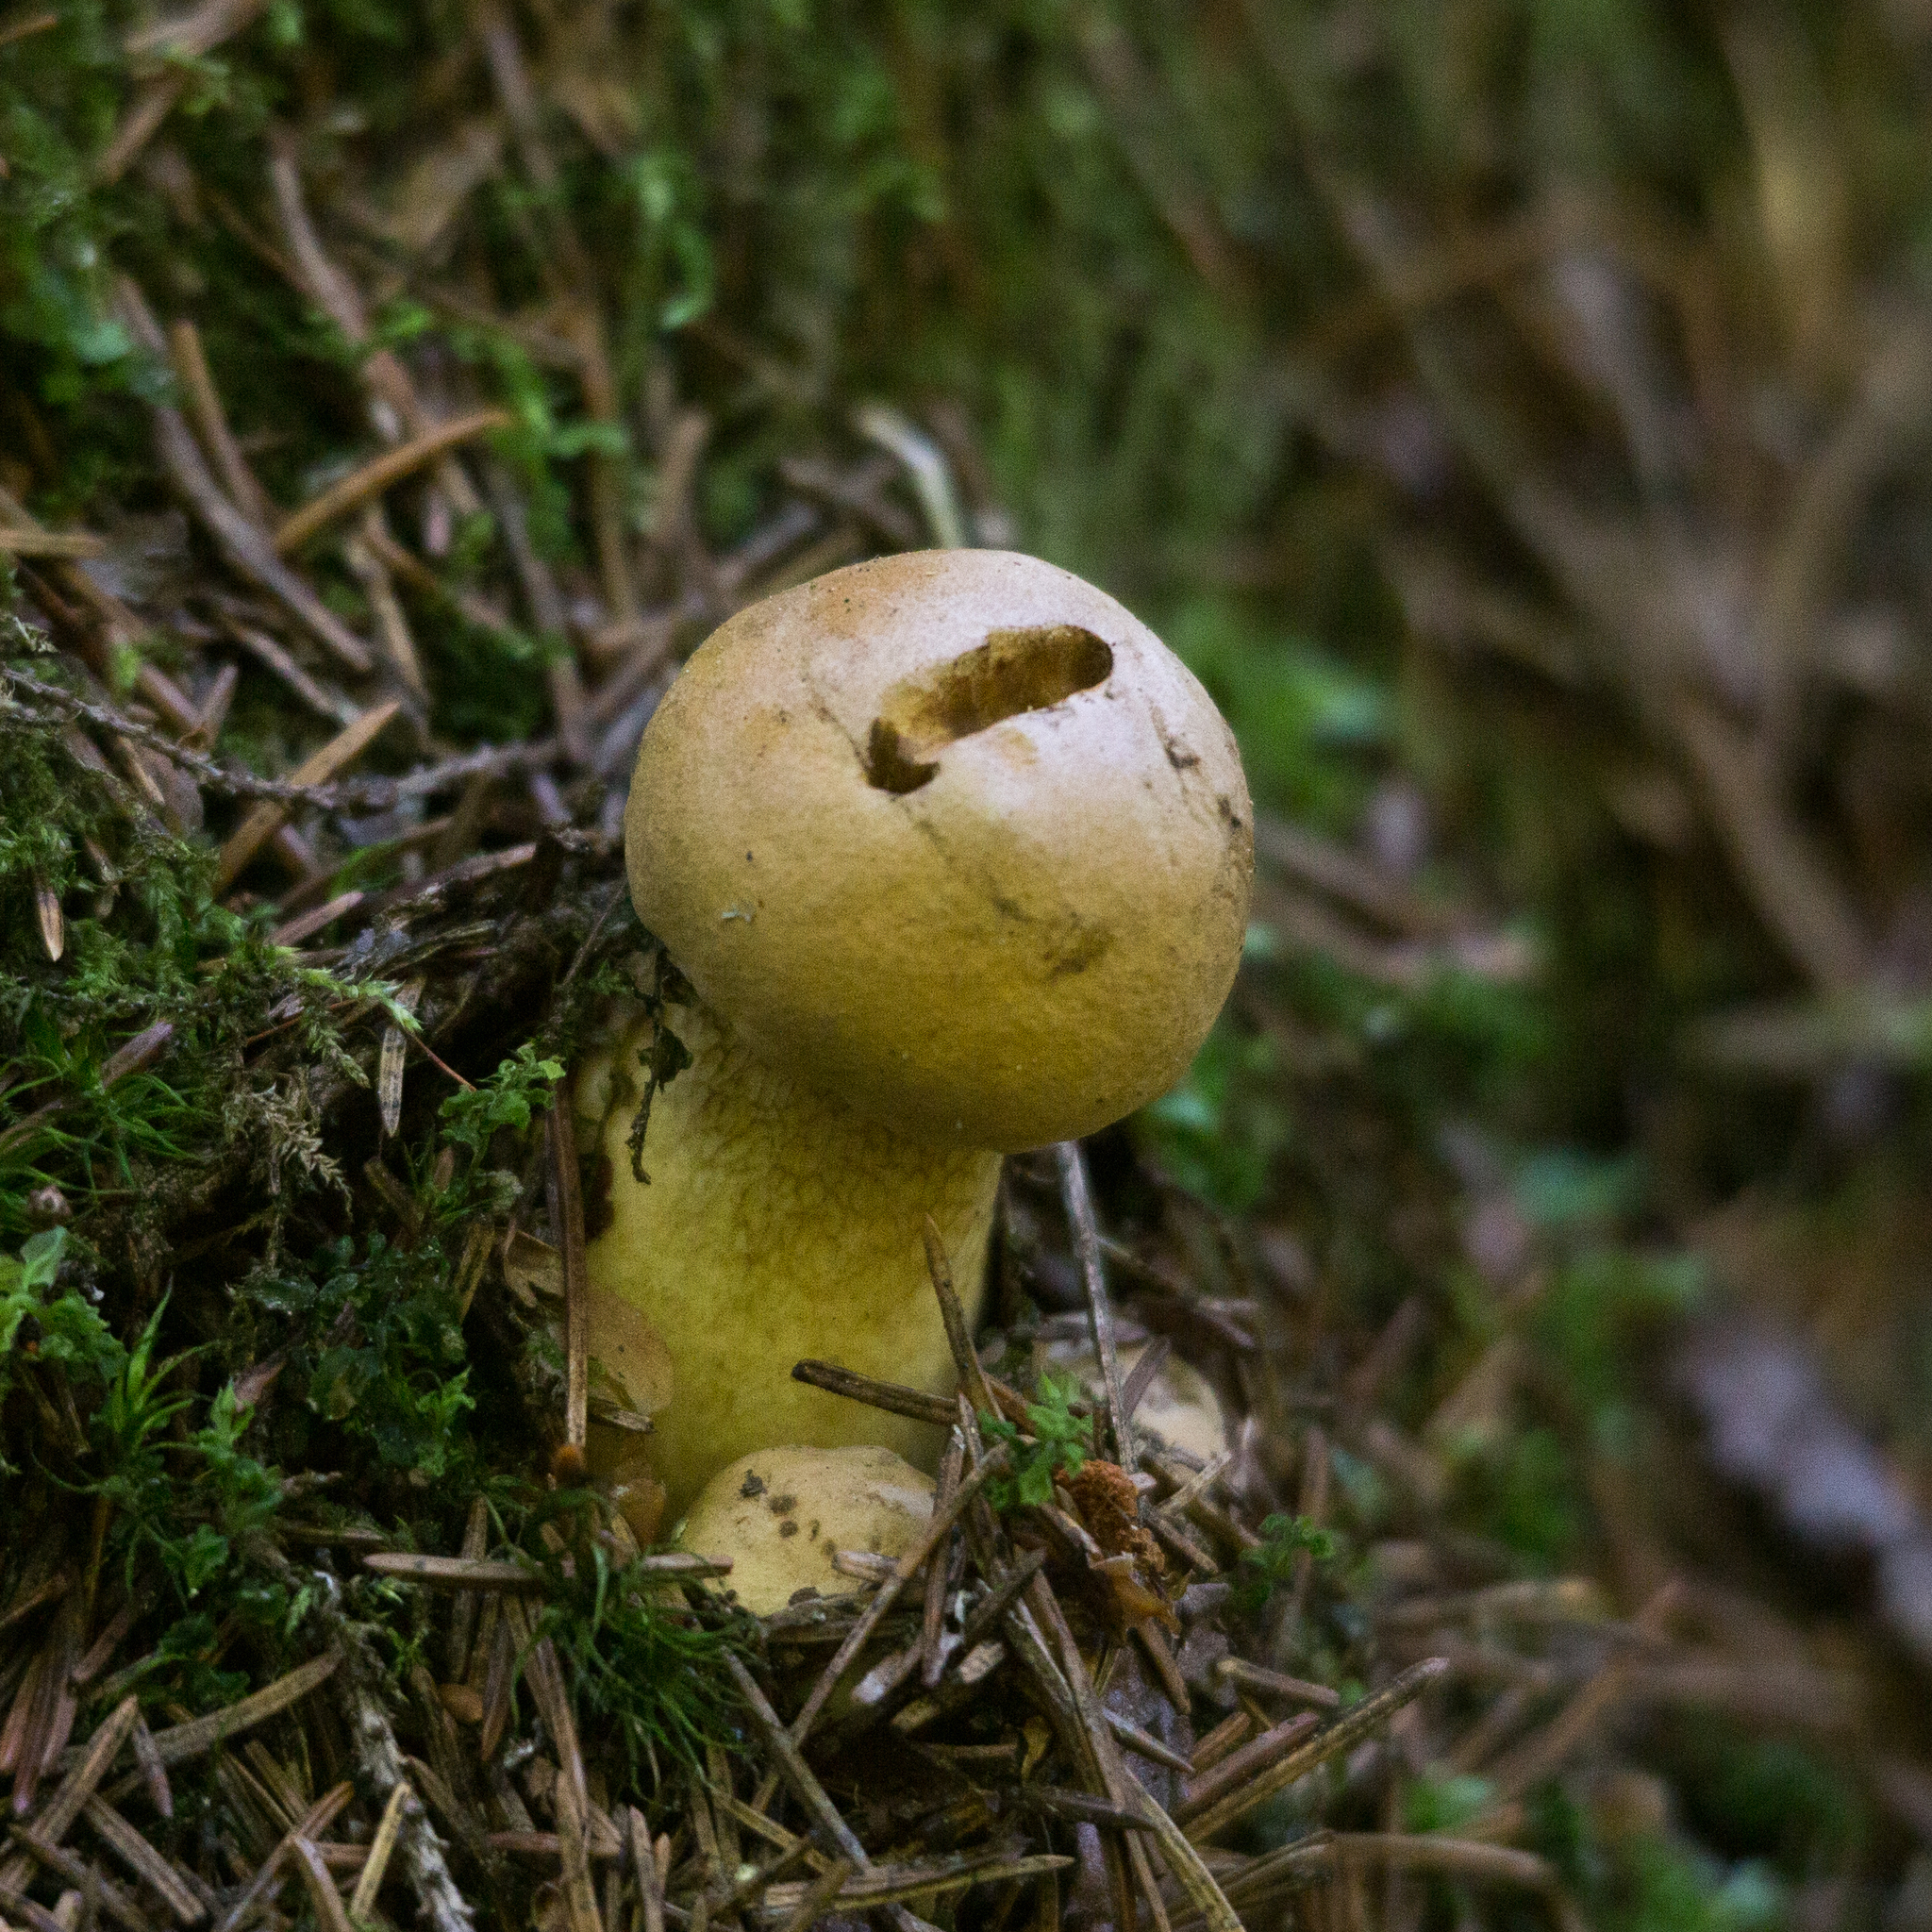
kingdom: Fungi
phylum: Basidiomycota
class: Agaricomycetes
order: Boletales
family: Boletaceae
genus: Tylopilus
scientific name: Tylopilus felleus
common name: Bitter bolete
